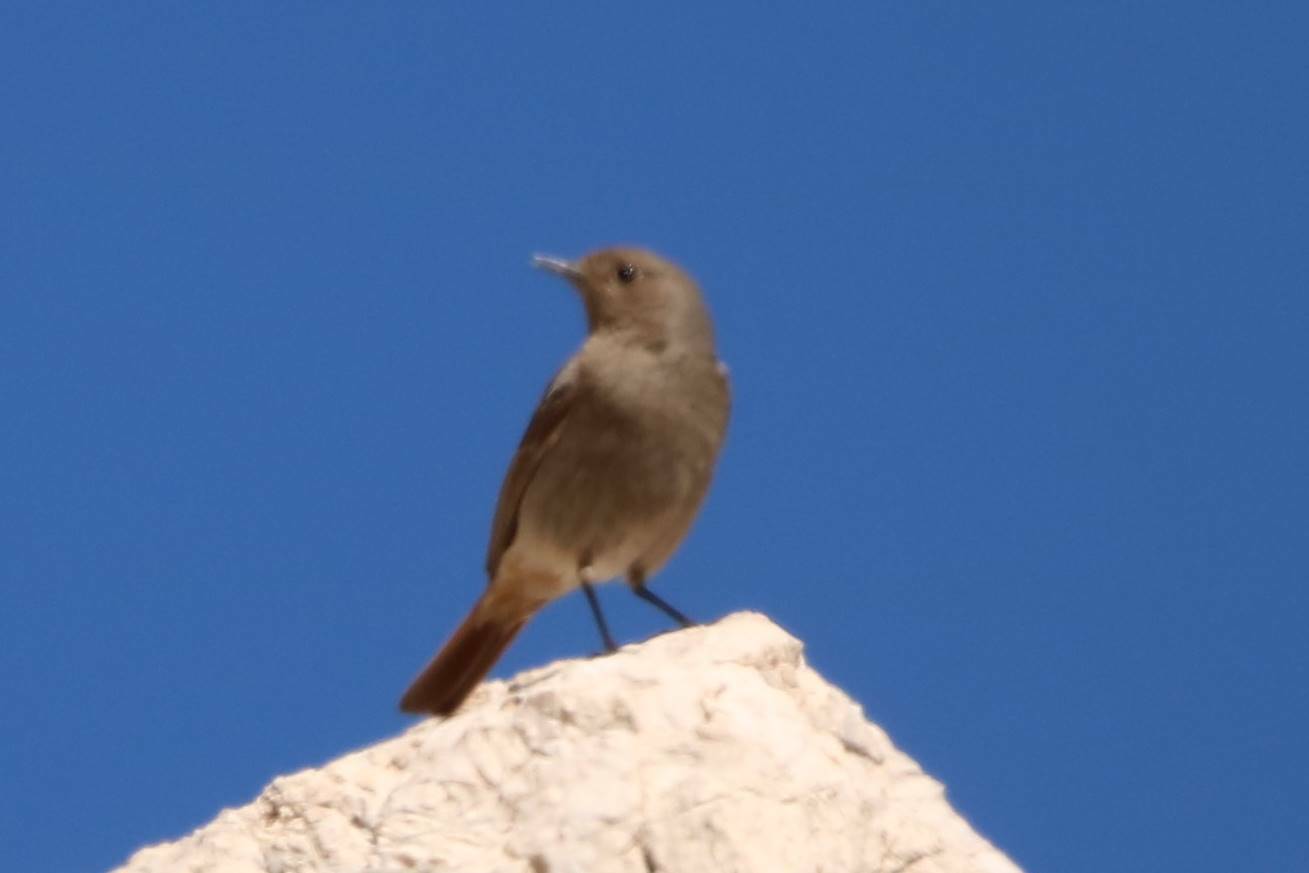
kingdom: Animalia
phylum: Chordata
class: Aves
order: Passeriformes
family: Muscicapidae
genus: Phoenicurus
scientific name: Phoenicurus ochruros
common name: Black redstart
